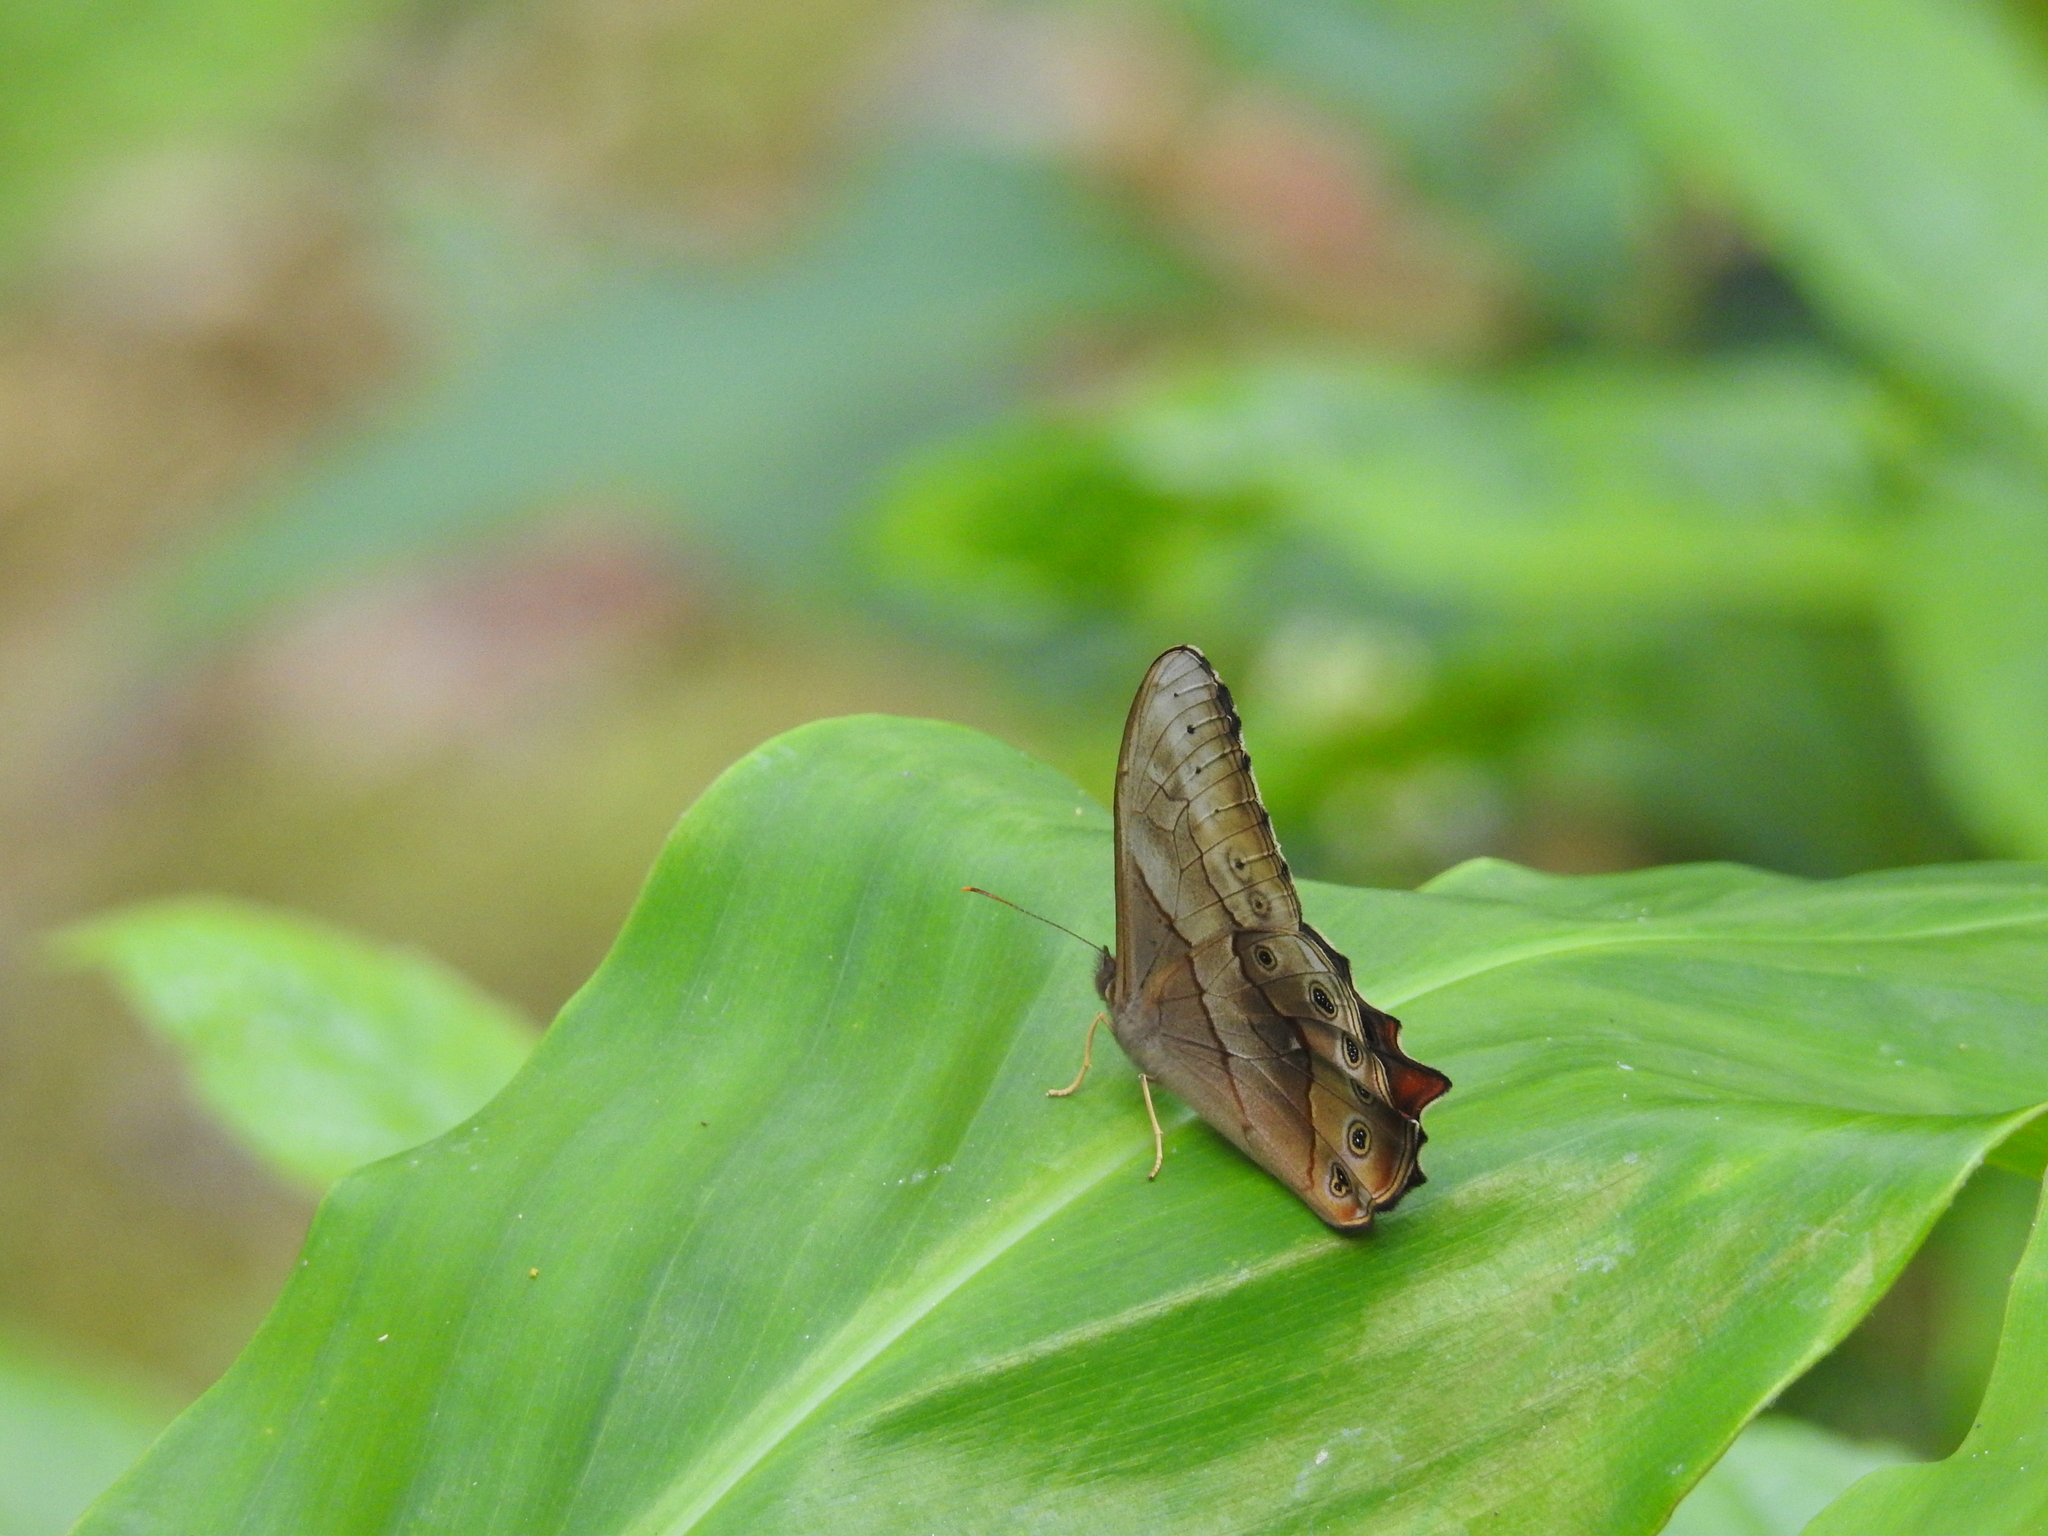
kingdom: Animalia
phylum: Arthropoda
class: Insecta
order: Lepidoptera
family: Nymphalidae
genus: Lethe
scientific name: Lethe chandica
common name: Angled red forester
